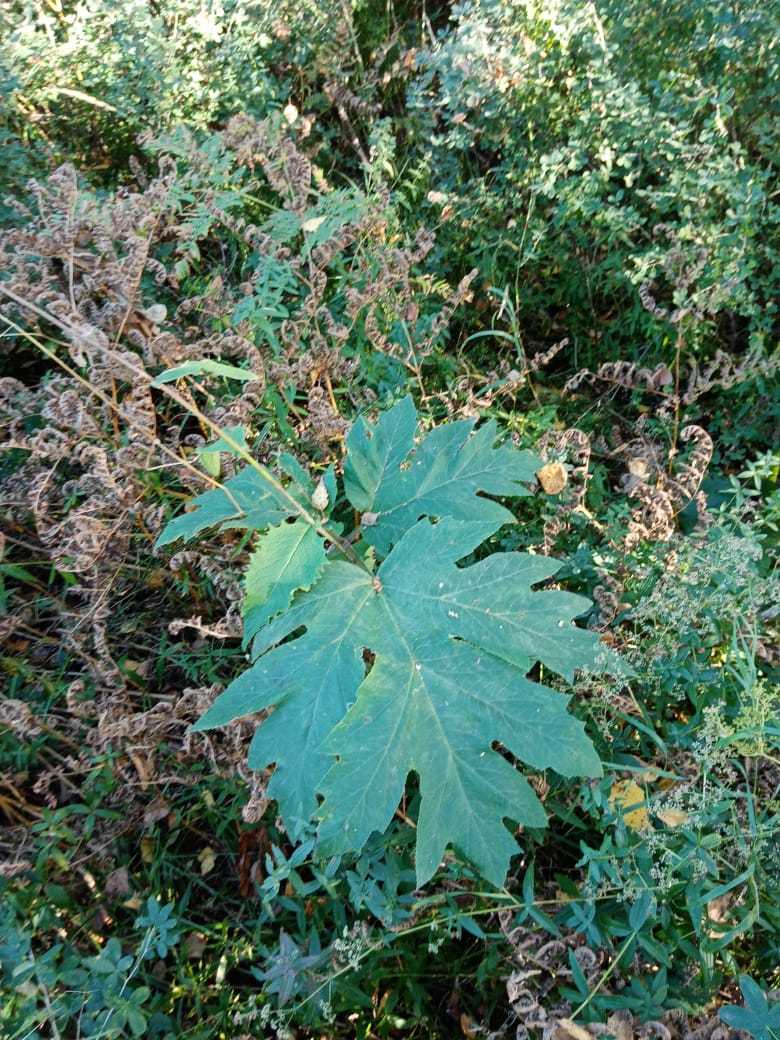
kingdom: Plantae
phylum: Tracheophyta
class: Magnoliopsida
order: Apiales
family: Apiaceae
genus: Heracleum
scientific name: Heracleum dissectum
